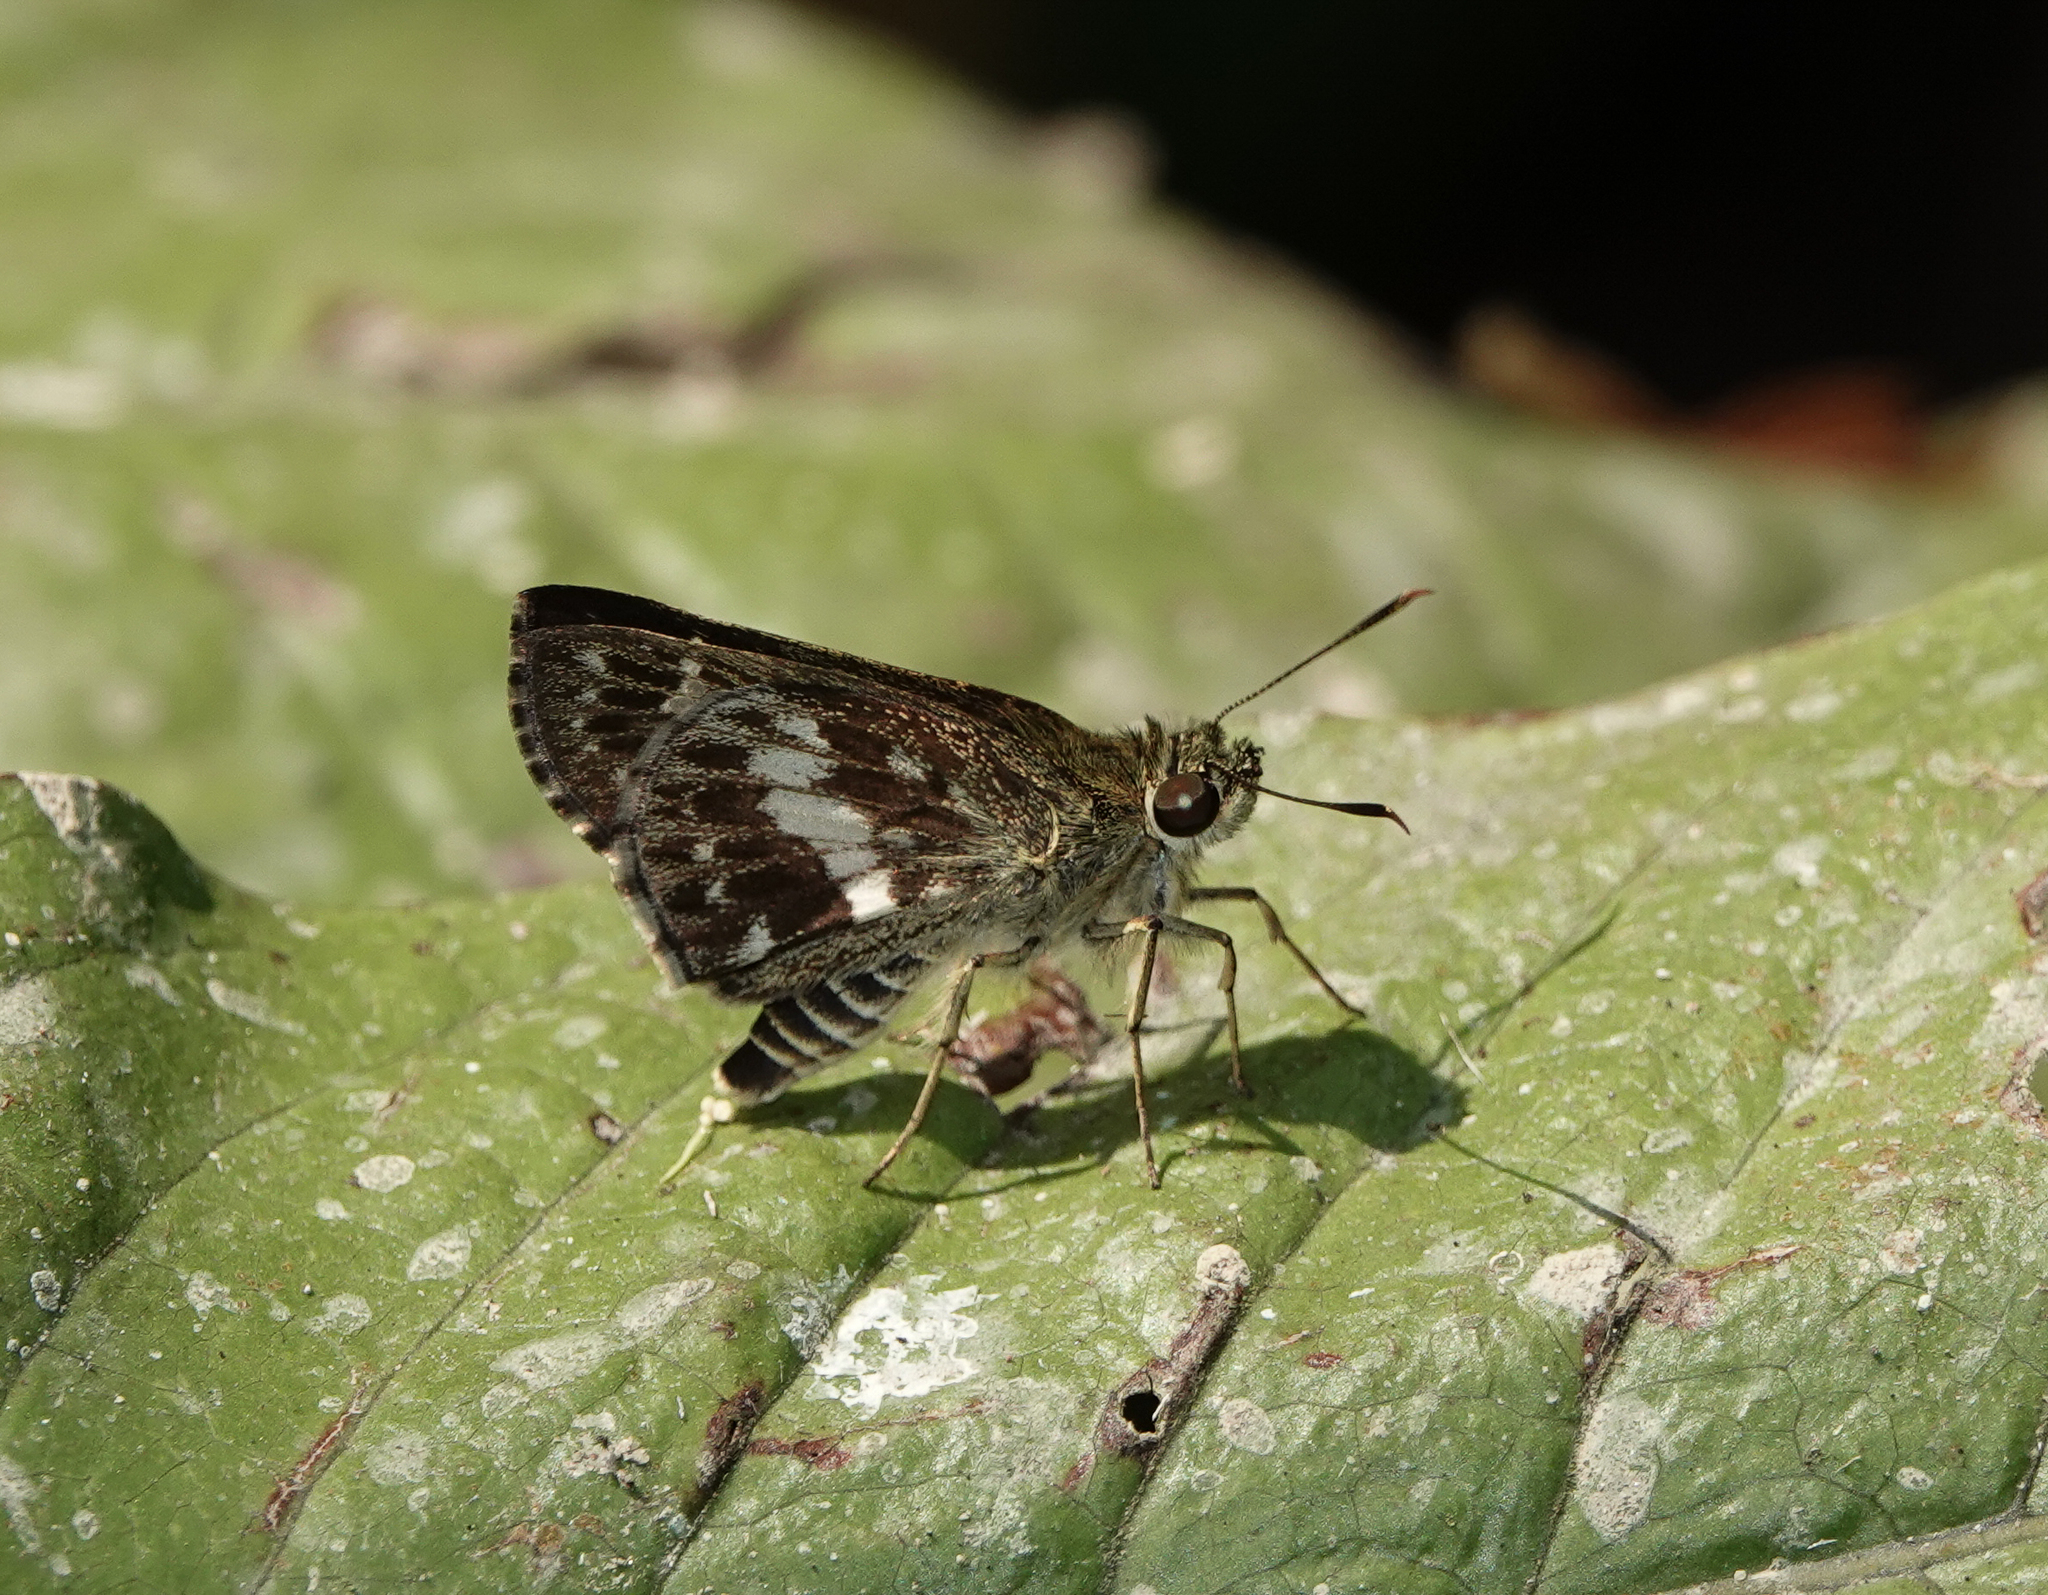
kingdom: Animalia
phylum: Arthropoda
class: Insecta
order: Lepidoptera
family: Hesperiidae
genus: Halpe
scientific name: Halpe porus
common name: Moore's ace
